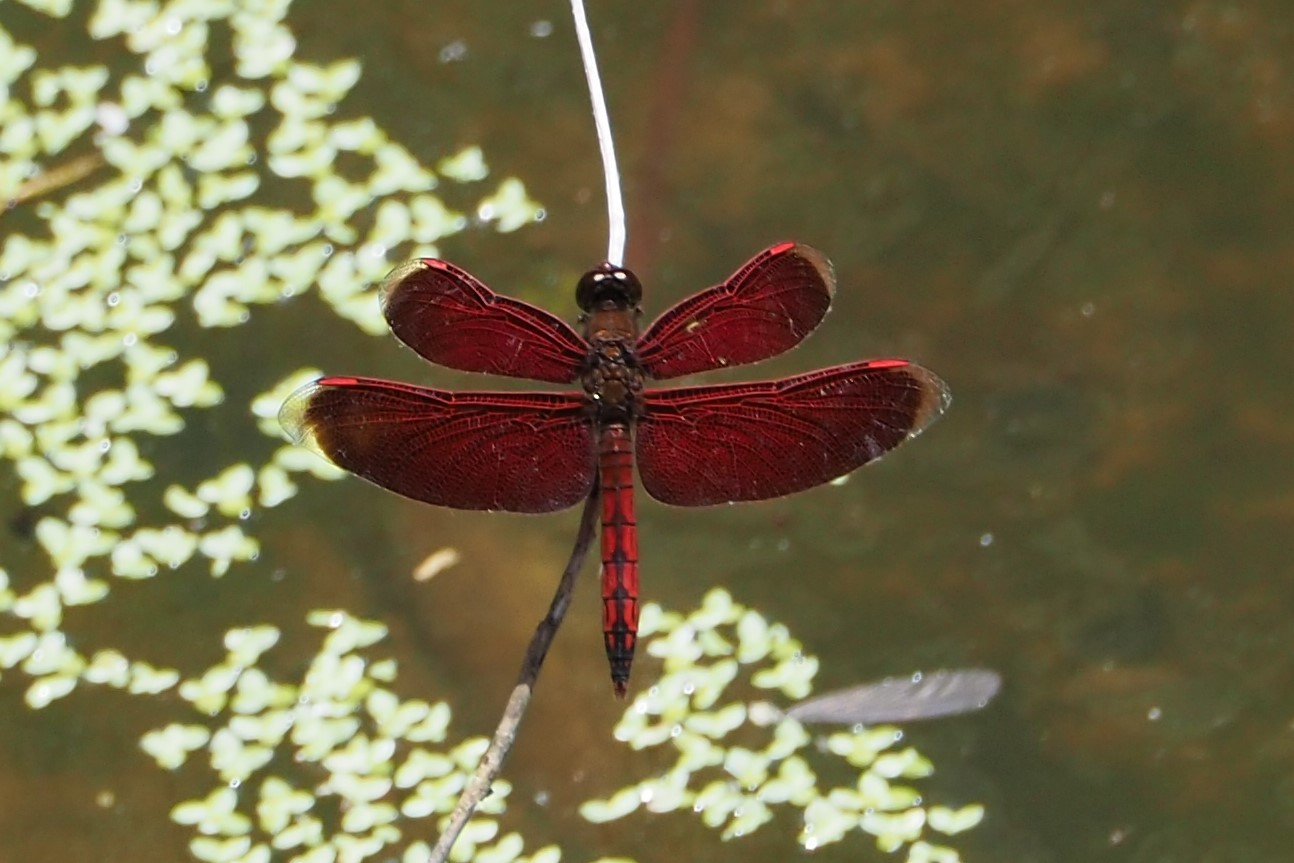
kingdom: Animalia
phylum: Arthropoda
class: Insecta
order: Odonata
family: Libellulidae
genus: Neurothemis
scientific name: Neurothemis taiwanensis
